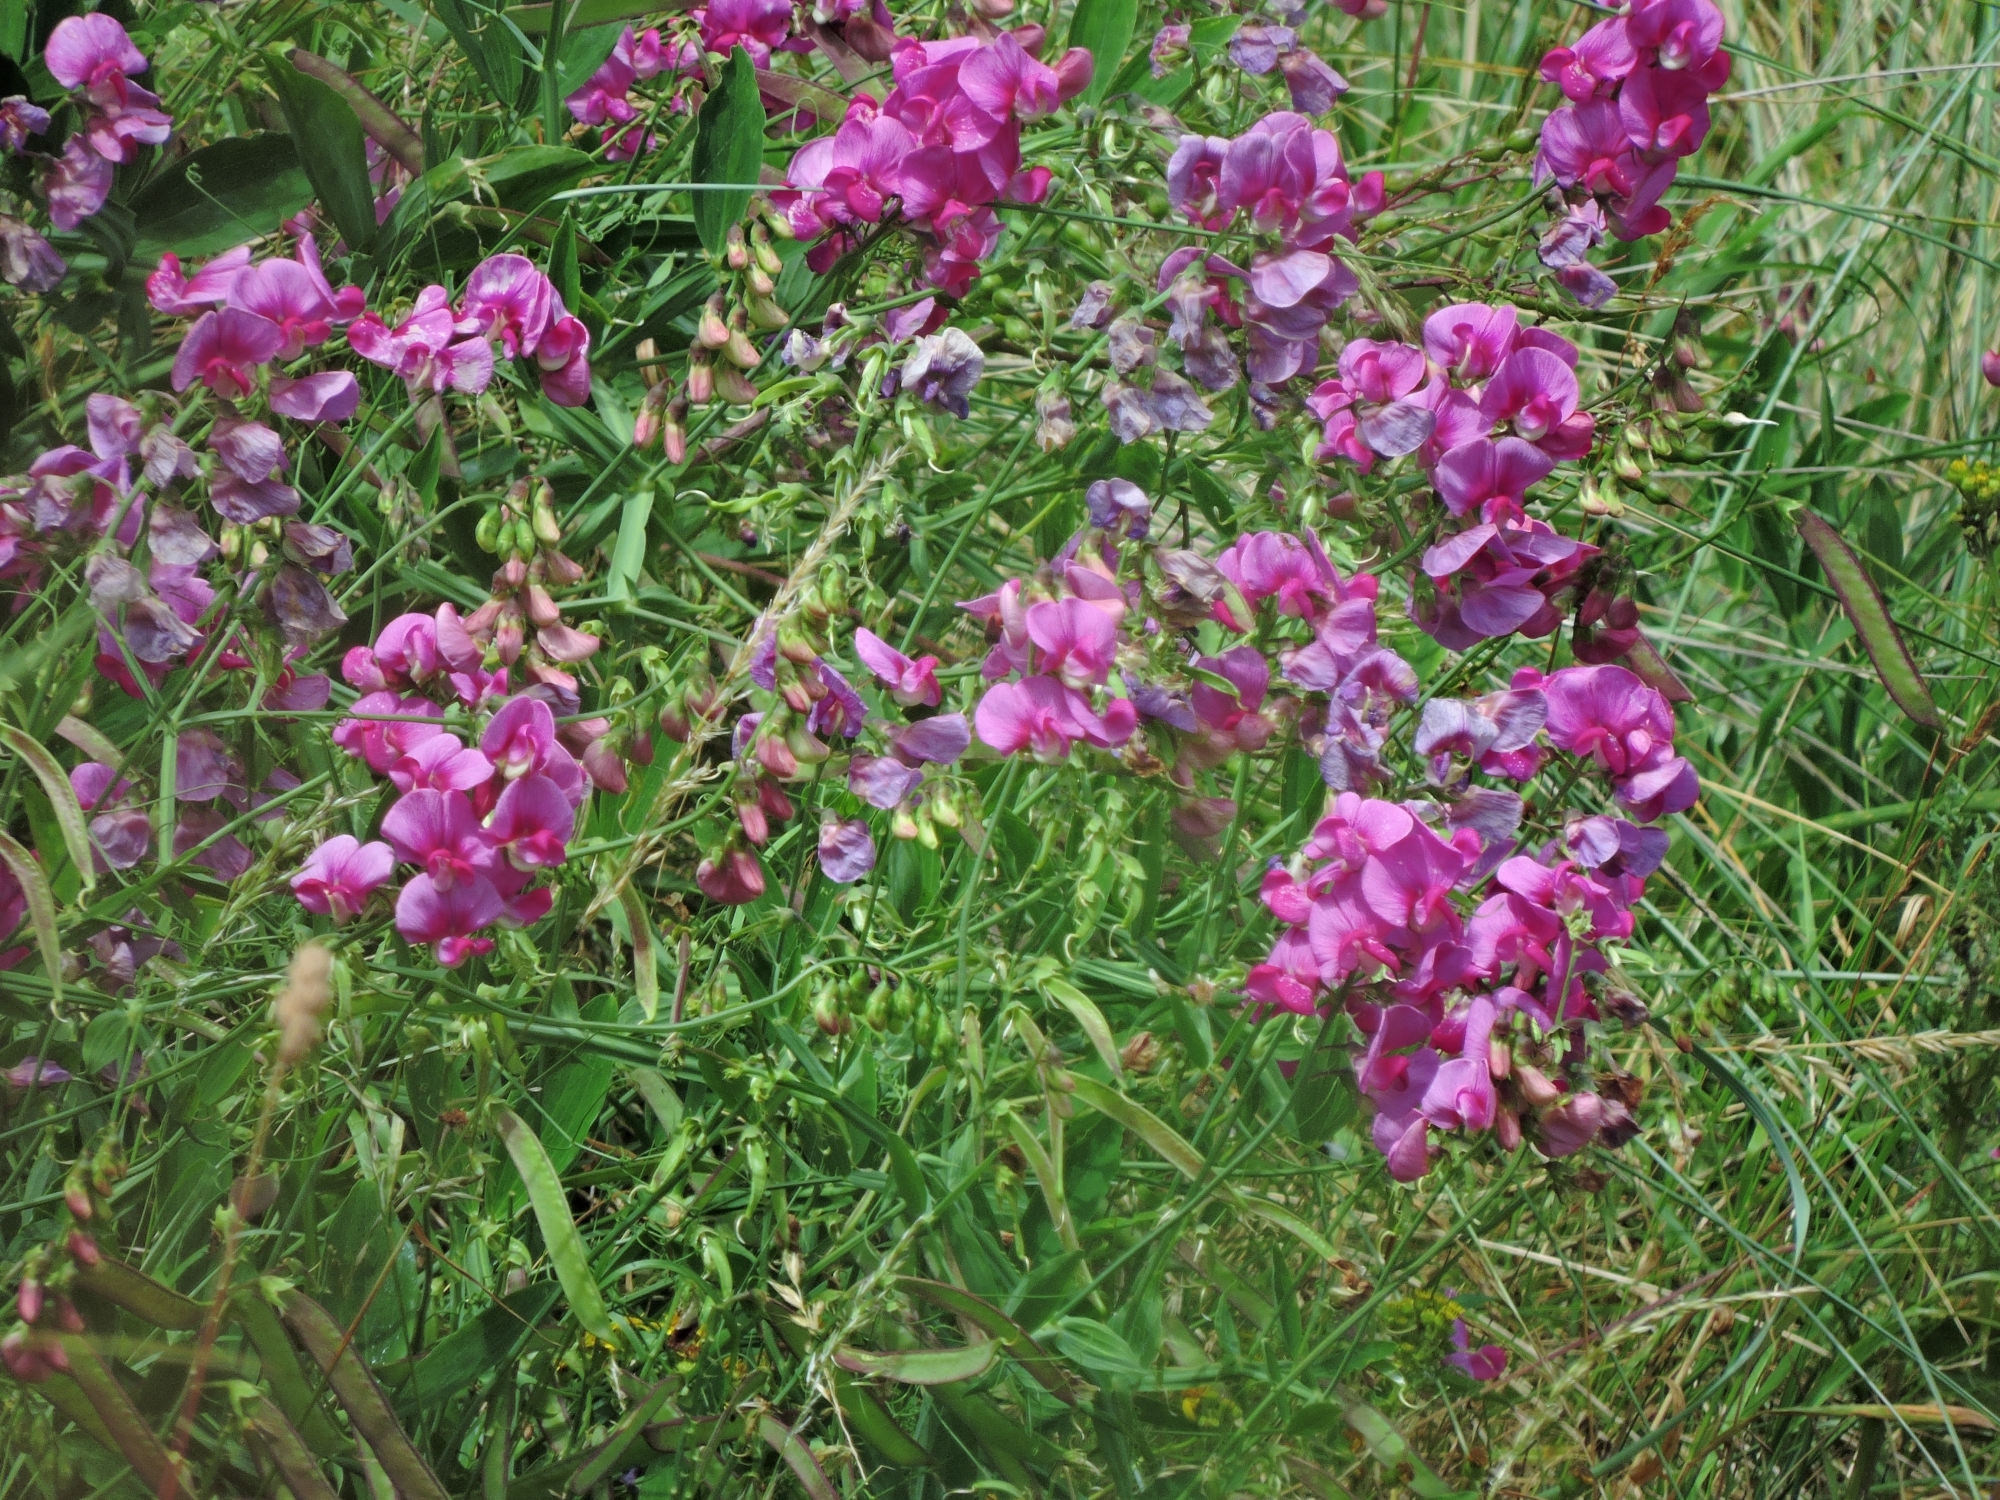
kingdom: Plantae
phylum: Tracheophyta
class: Magnoliopsida
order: Fabales
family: Fabaceae
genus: Lathyrus
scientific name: Lathyrus latifolius
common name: Perennial pea
